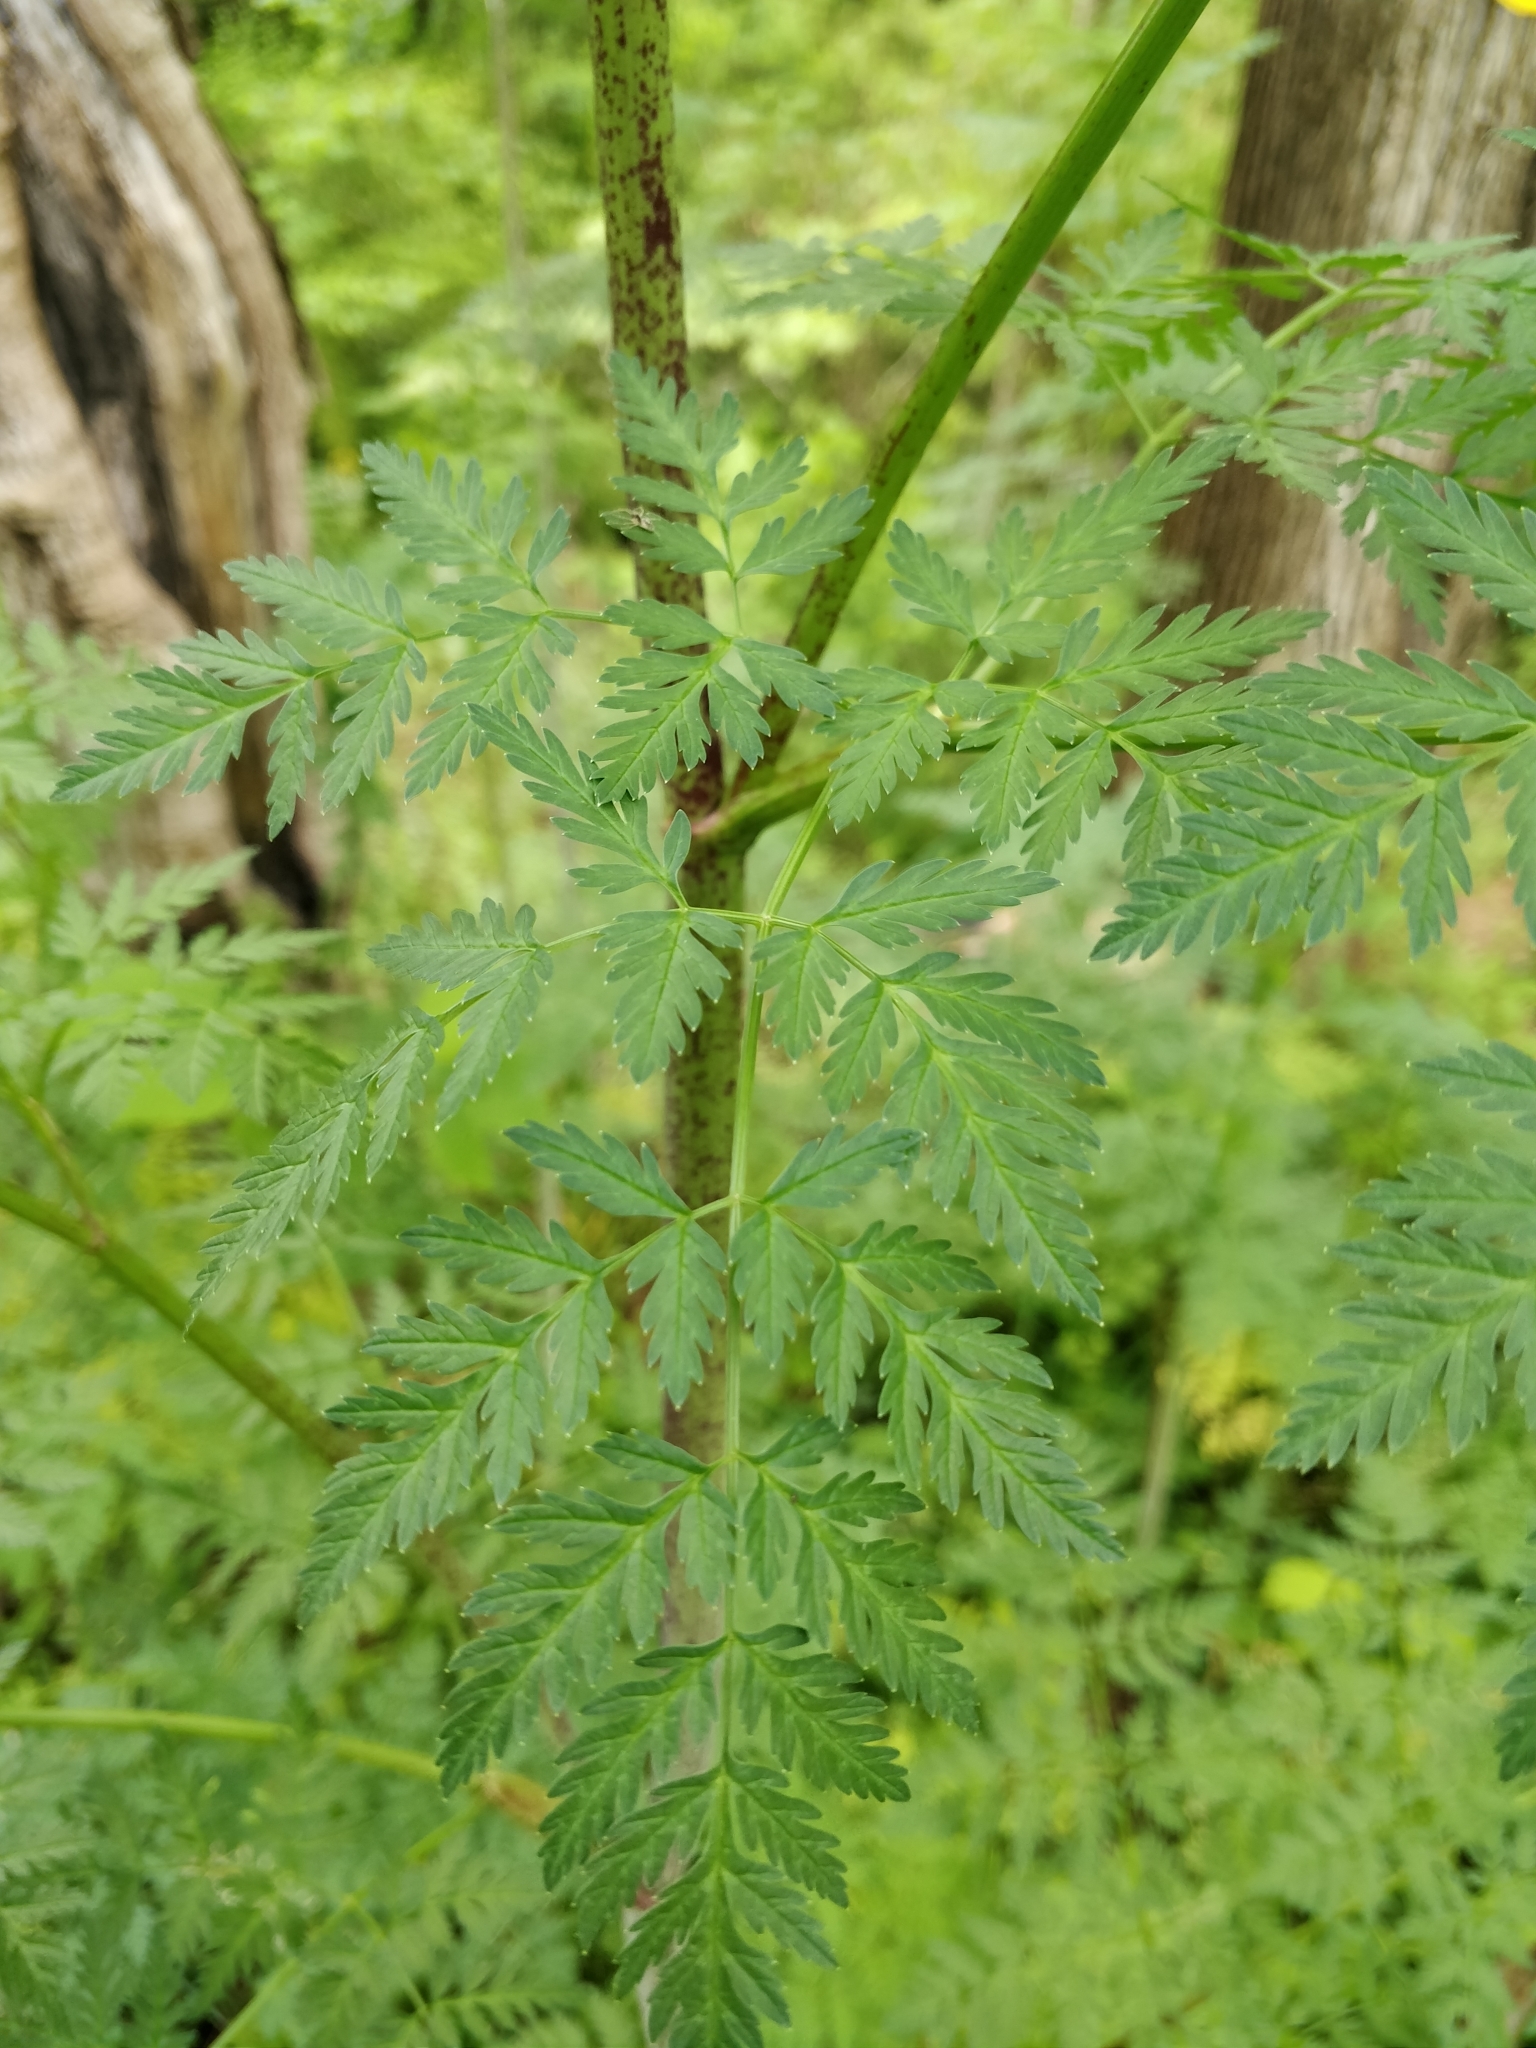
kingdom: Plantae
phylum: Tracheophyta
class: Magnoliopsida
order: Apiales
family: Apiaceae
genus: Conium
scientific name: Conium maculatum
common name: Hemlock
